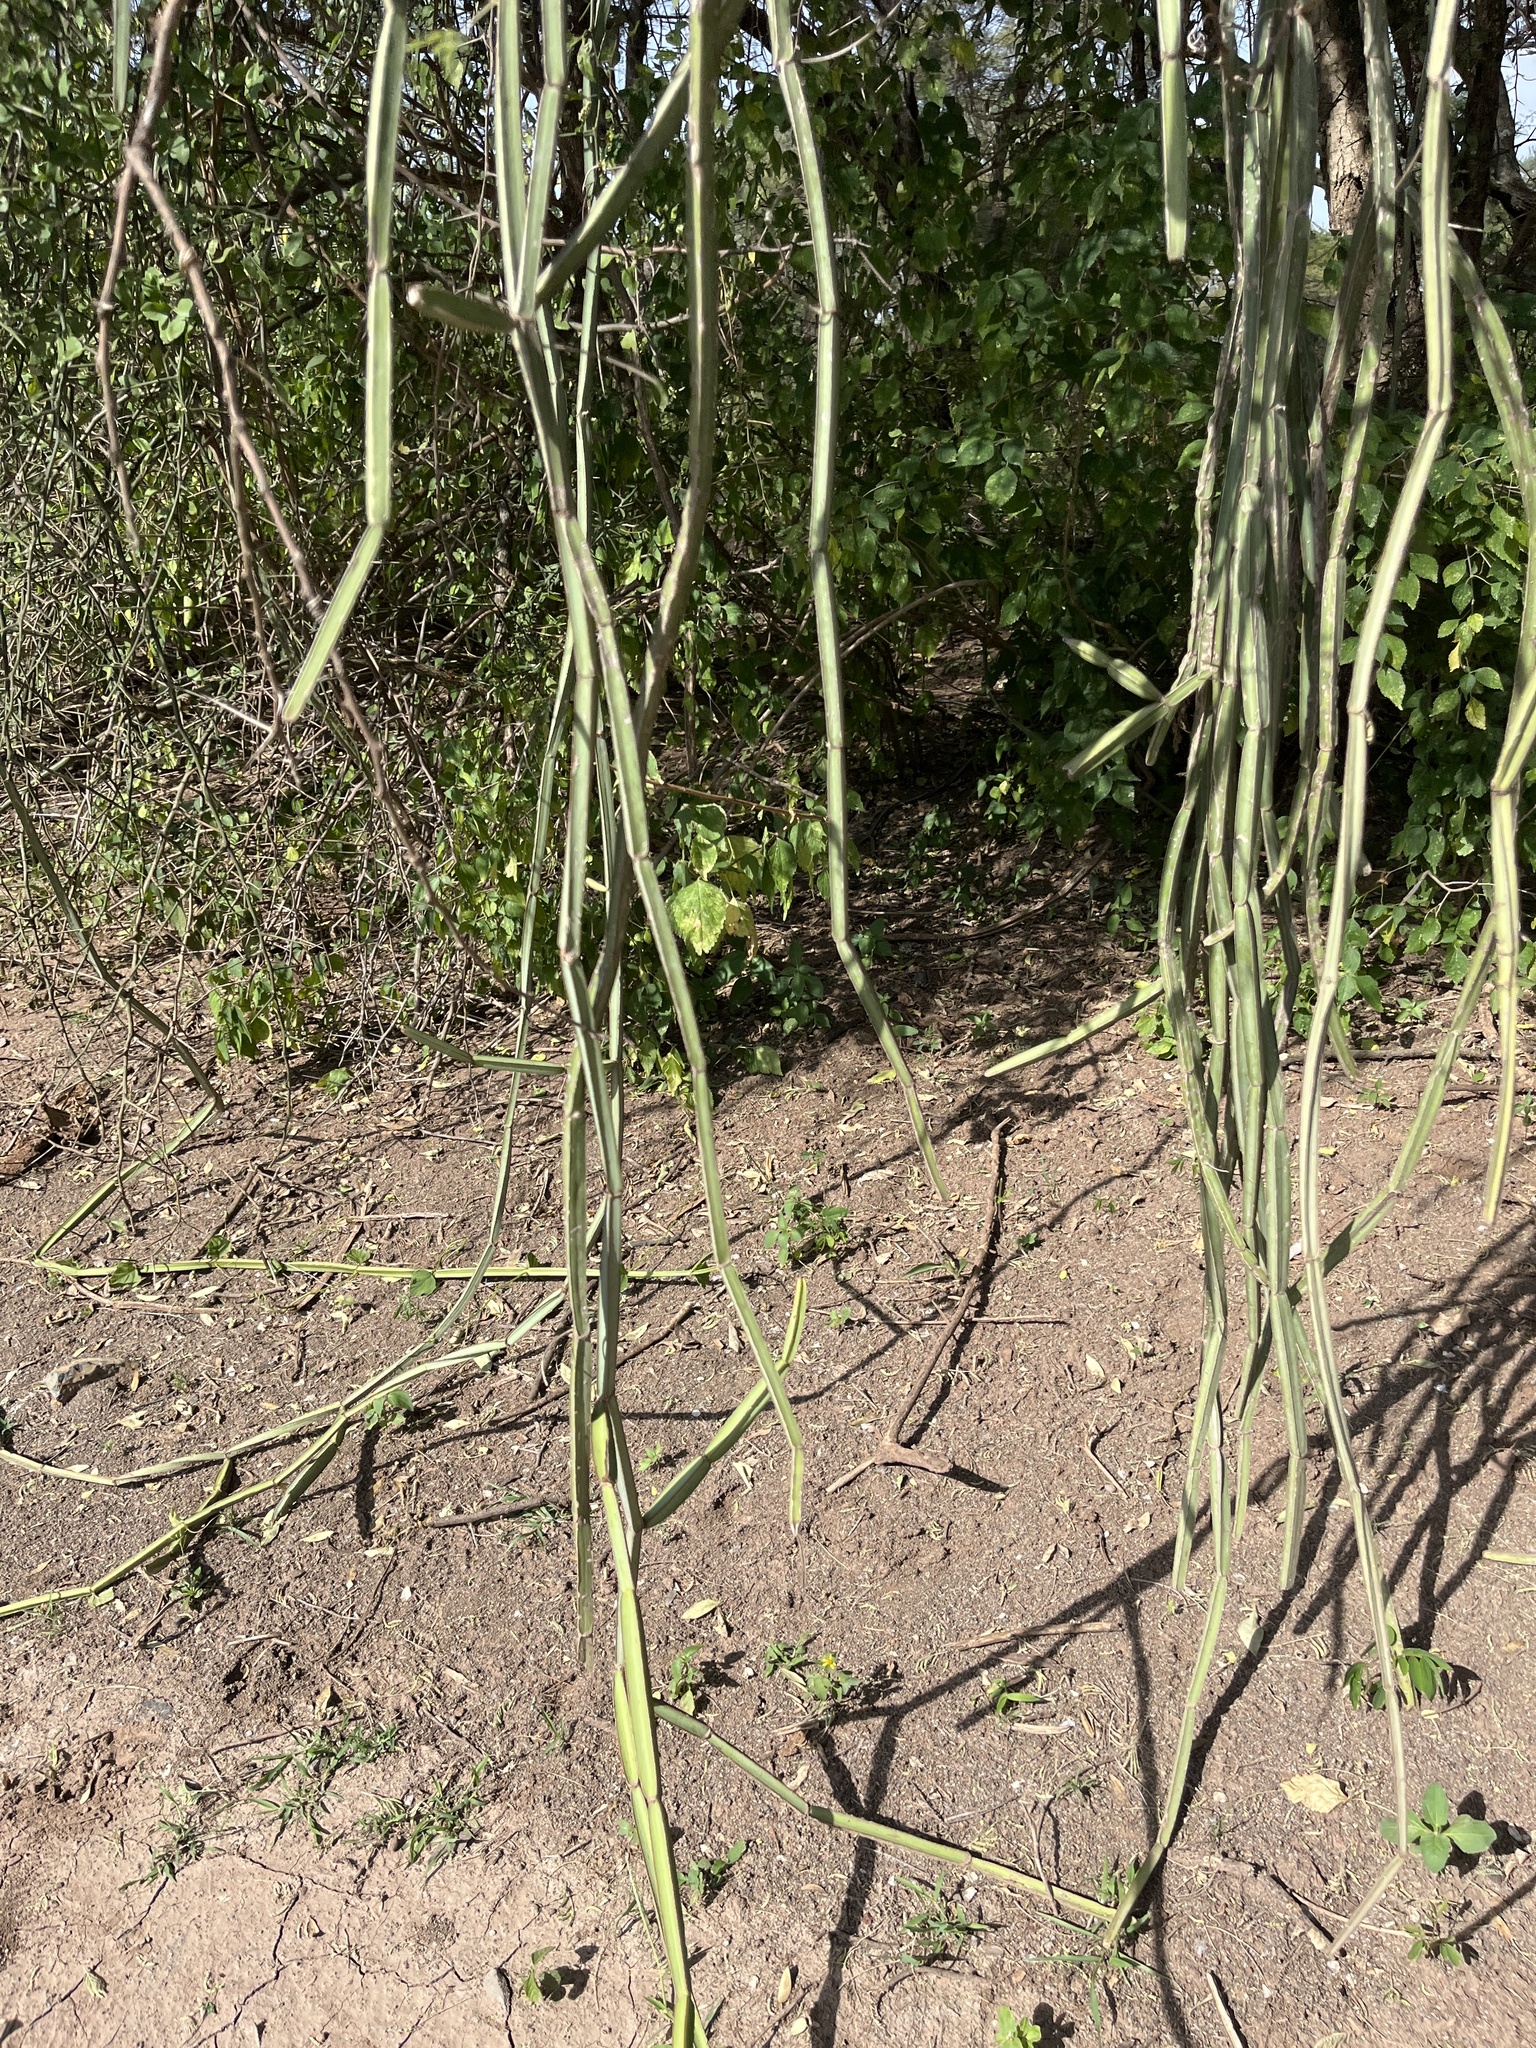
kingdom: Plantae
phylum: Tracheophyta
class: Magnoliopsida
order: Vitales
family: Vitaceae
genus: Cissus
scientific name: Cissus quadrangularis
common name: Veldt-grape
